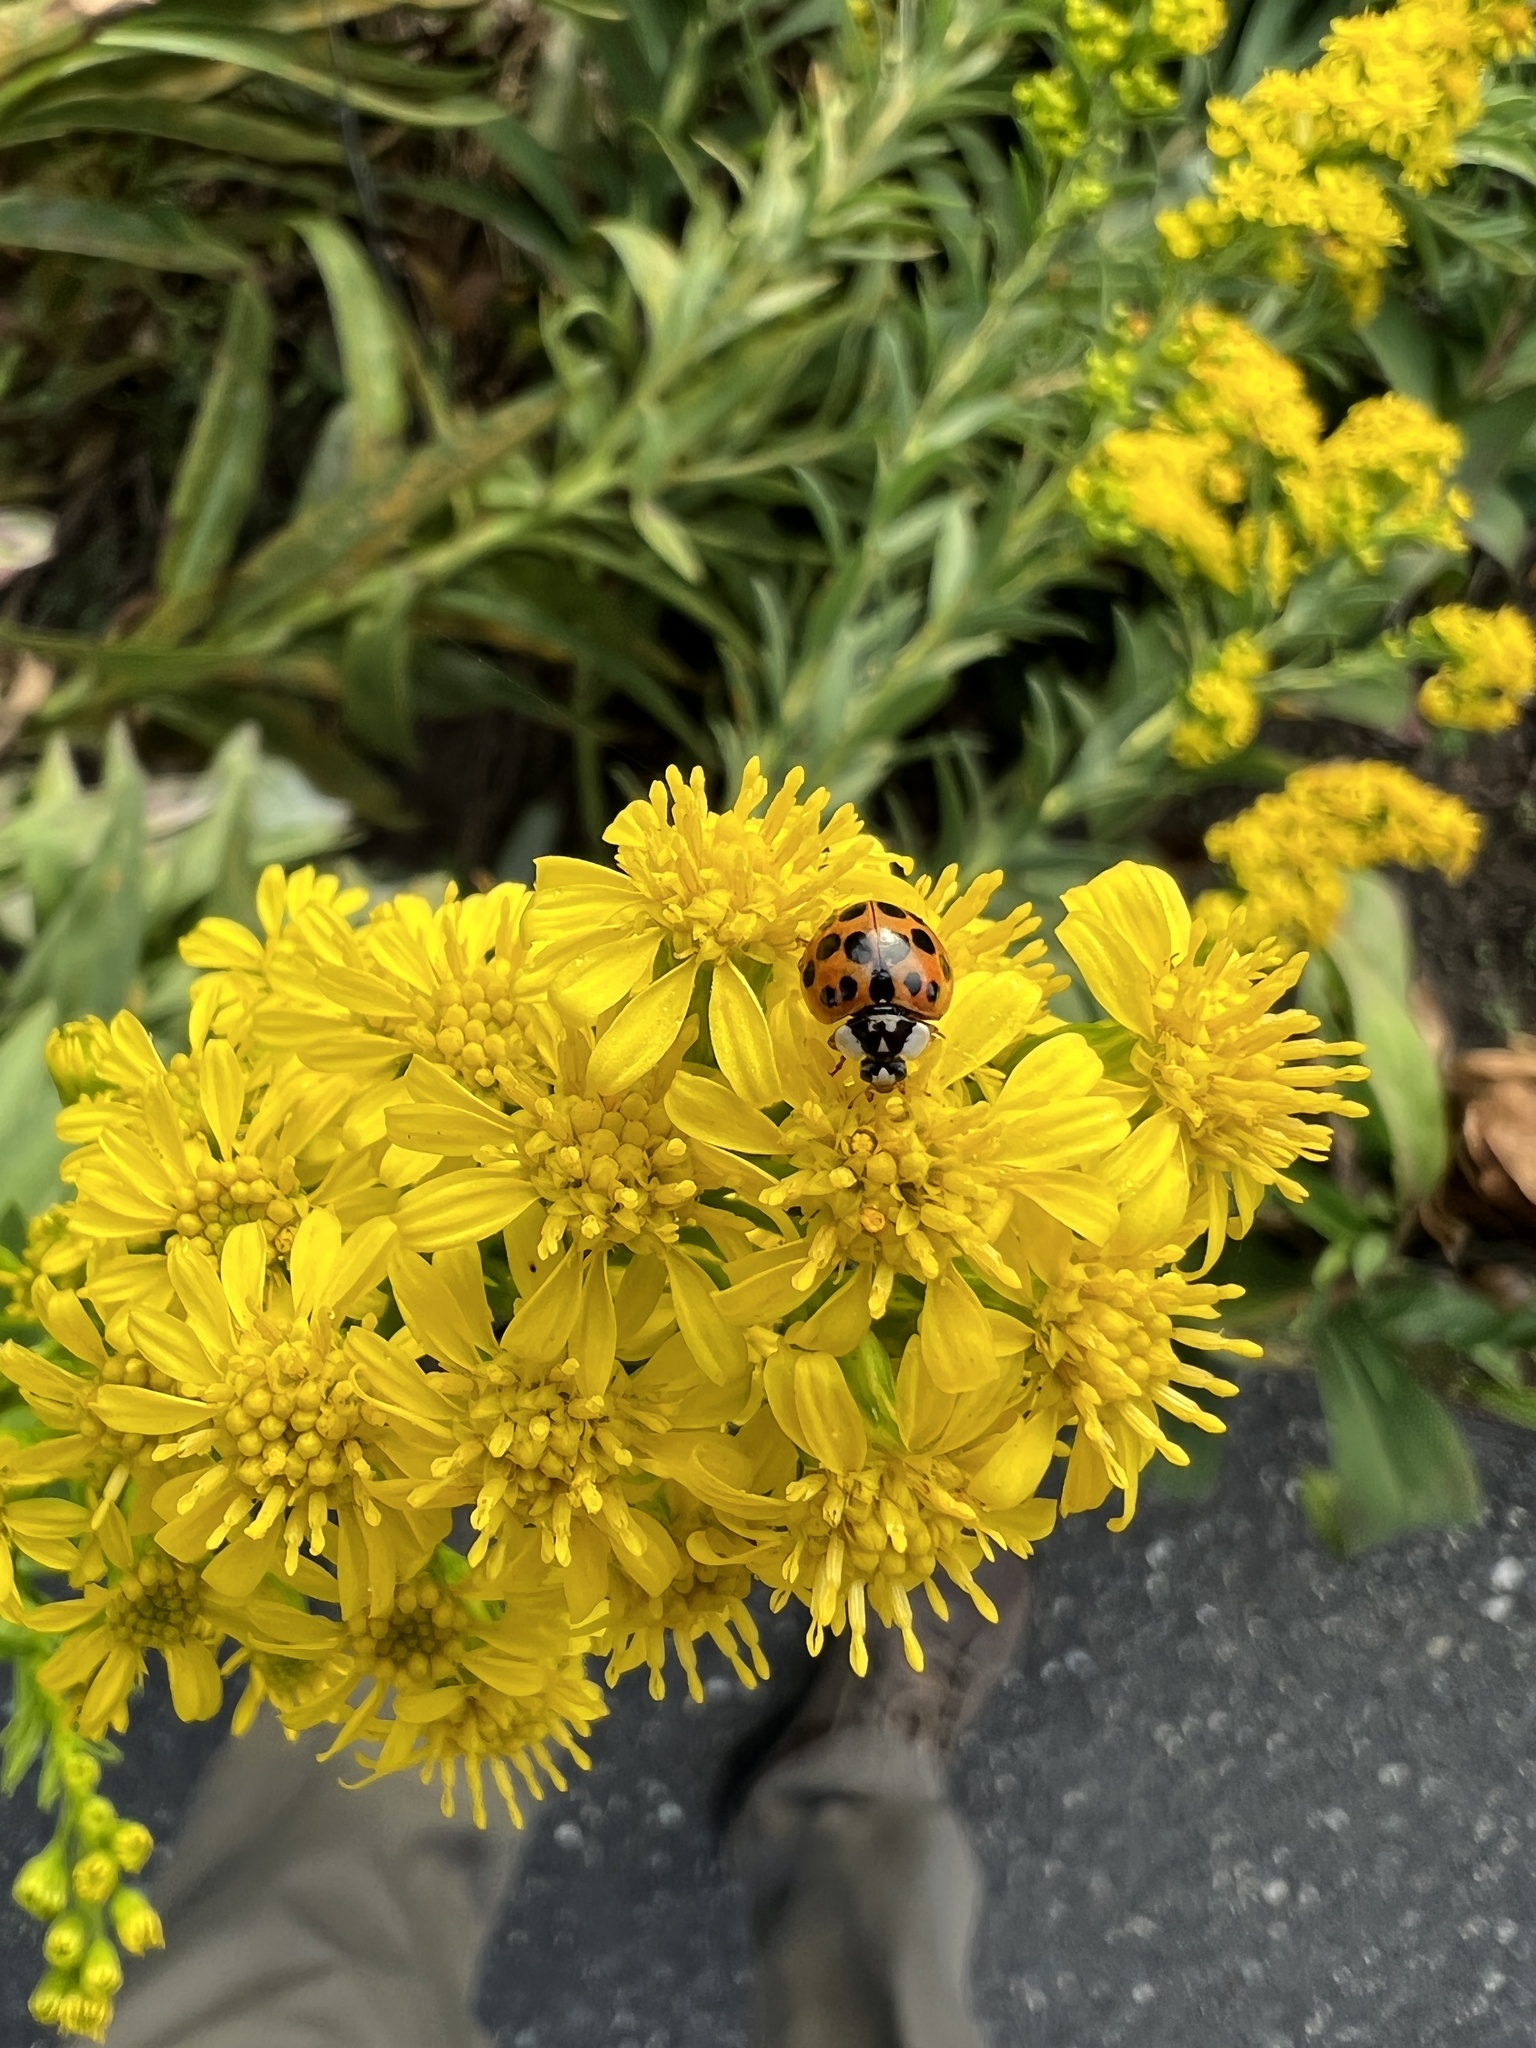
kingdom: Animalia
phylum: Arthropoda
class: Insecta
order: Coleoptera
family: Coccinellidae
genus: Harmonia
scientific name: Harmonia axyridis
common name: Harlequin ladybird
